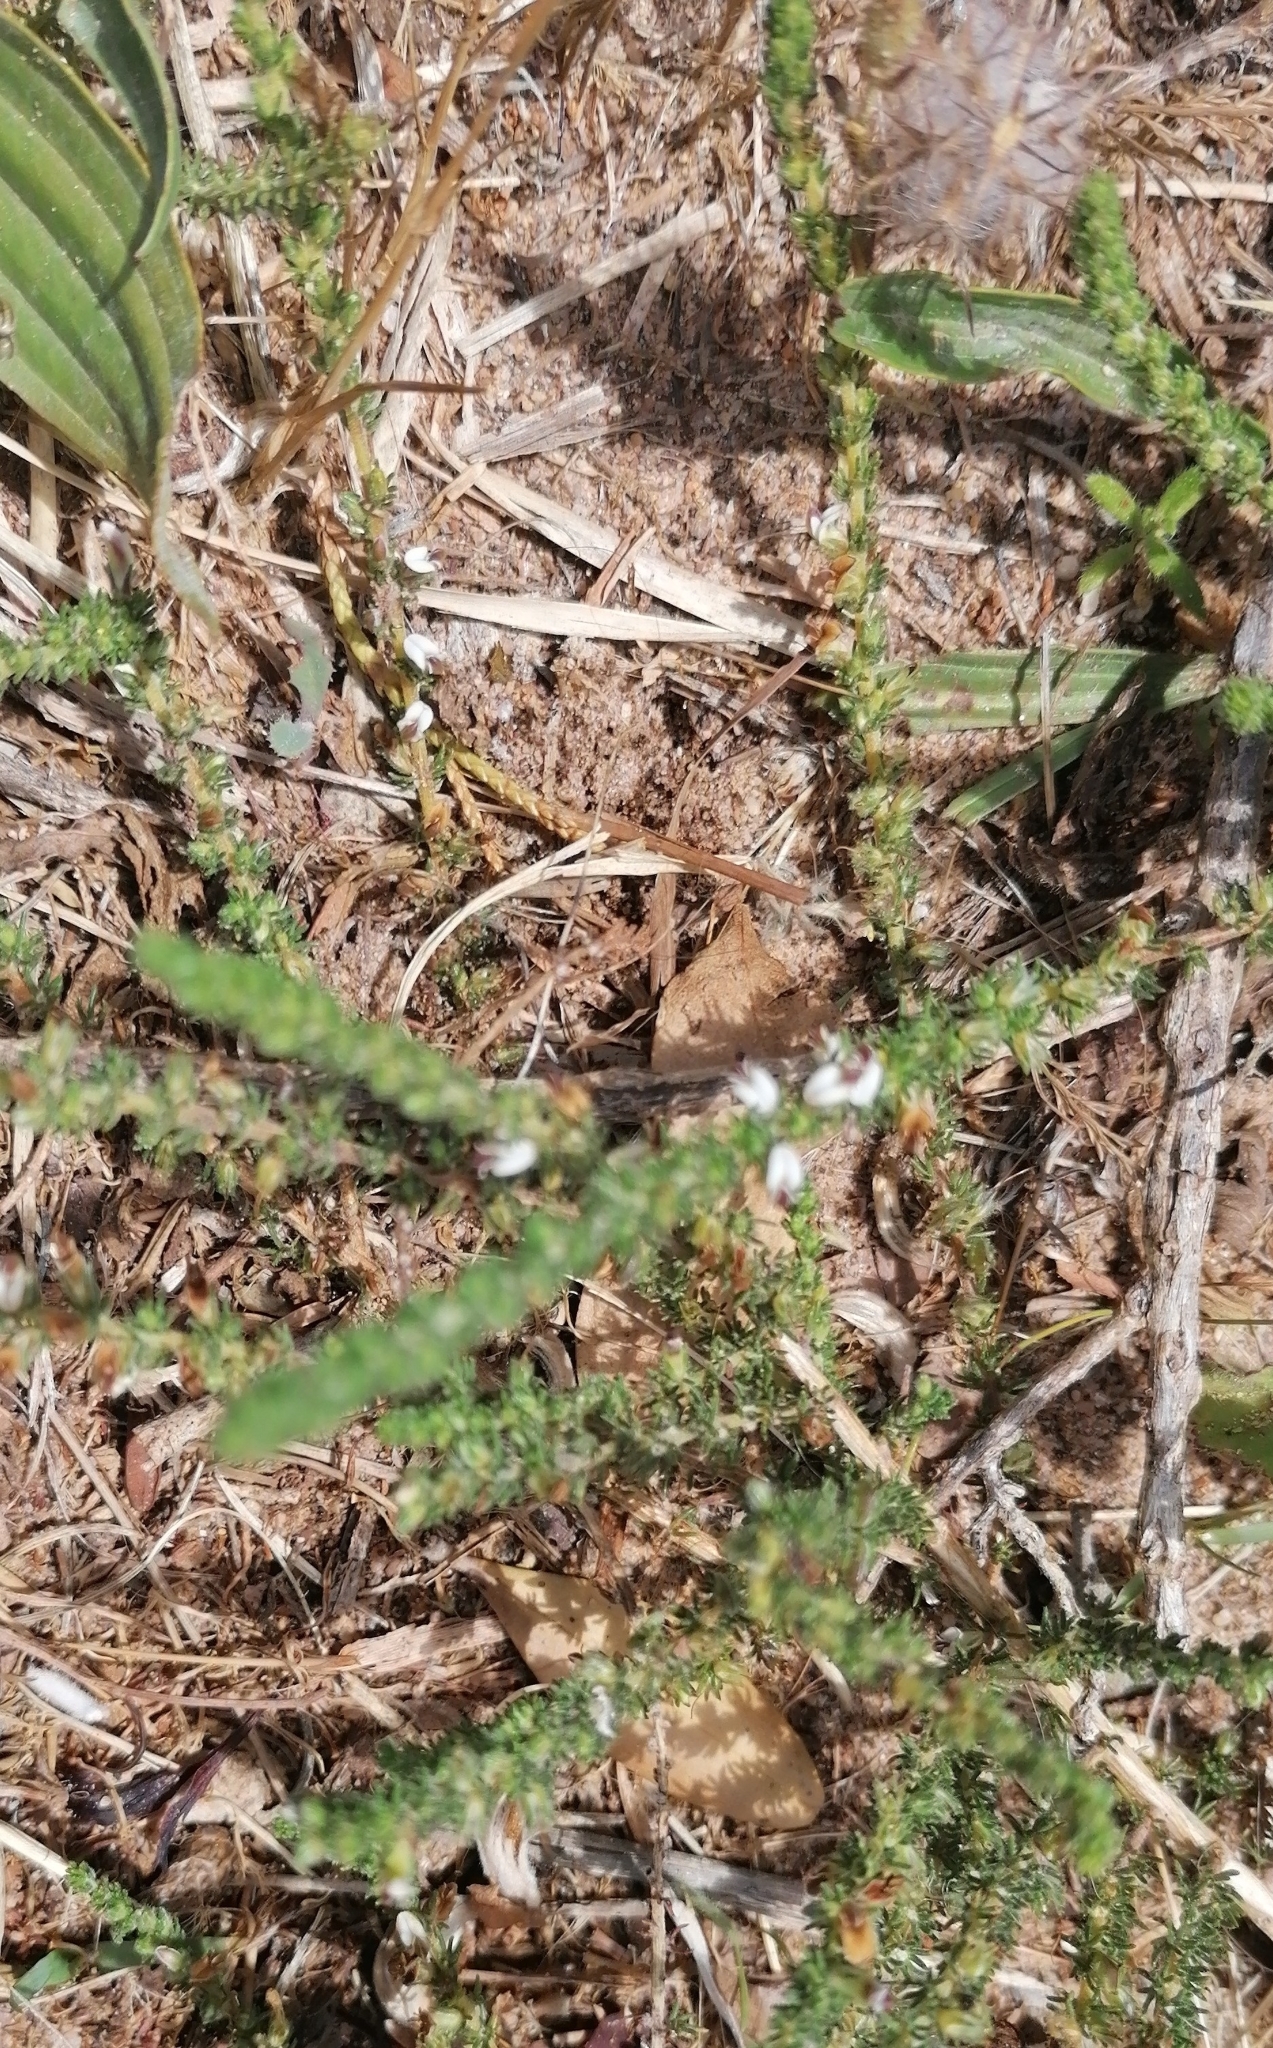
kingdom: Plantae
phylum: Tracheophyta
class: Magnoliopsida
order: Fabales
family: Fabaceae
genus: Aspalathus
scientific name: Aspalathus hispida
